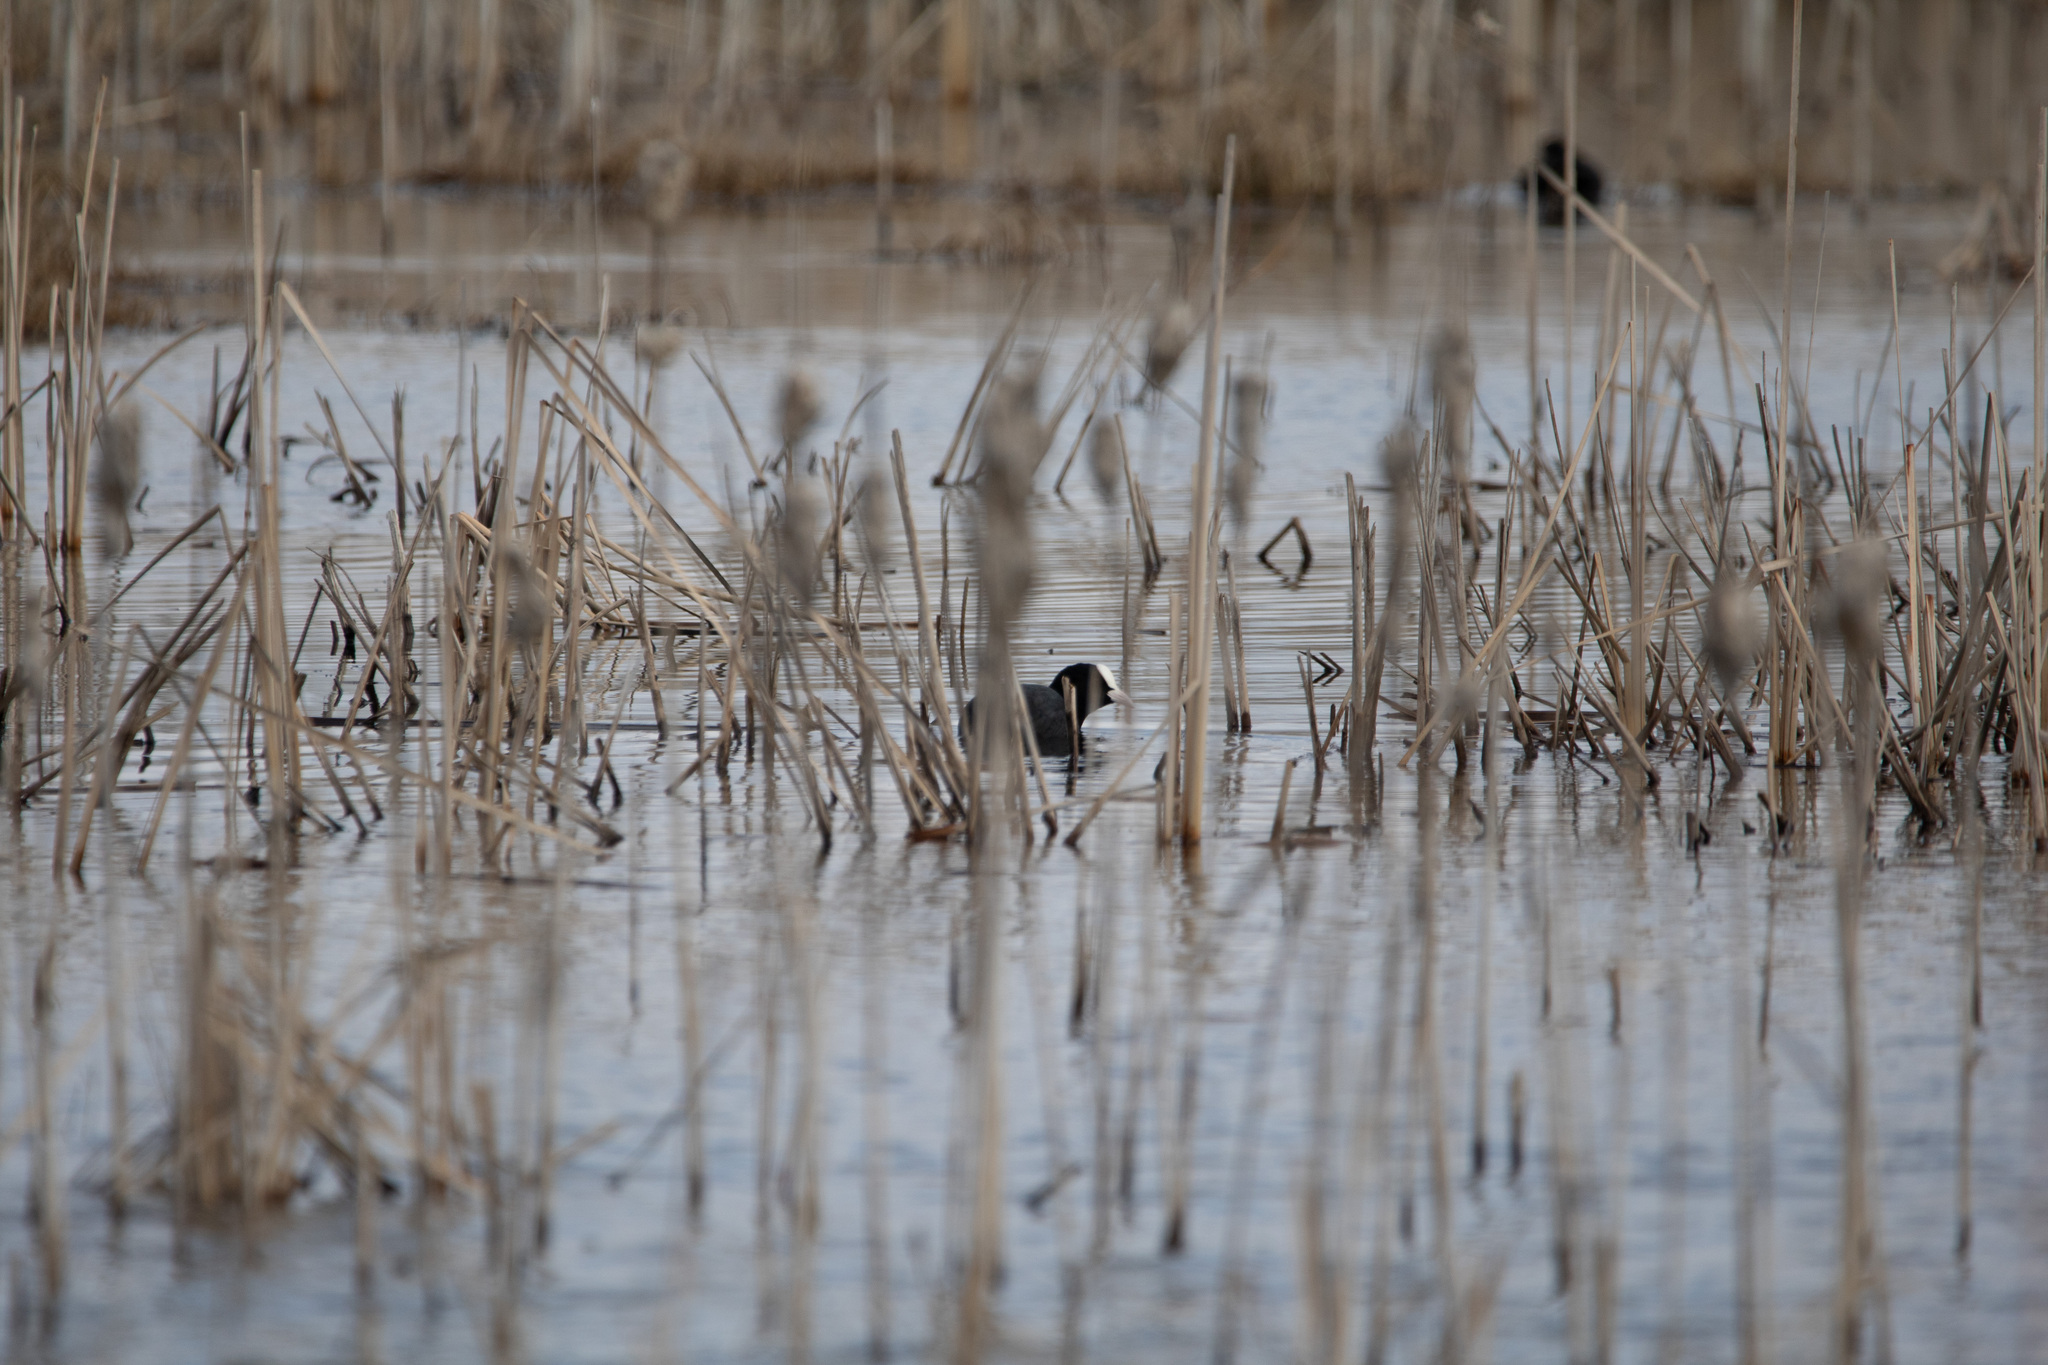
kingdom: Animalia
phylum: Chordata
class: Aves
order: Gruiformes
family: Rallidae
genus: Fulica
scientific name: Fulica atra
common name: Eurasian coot
